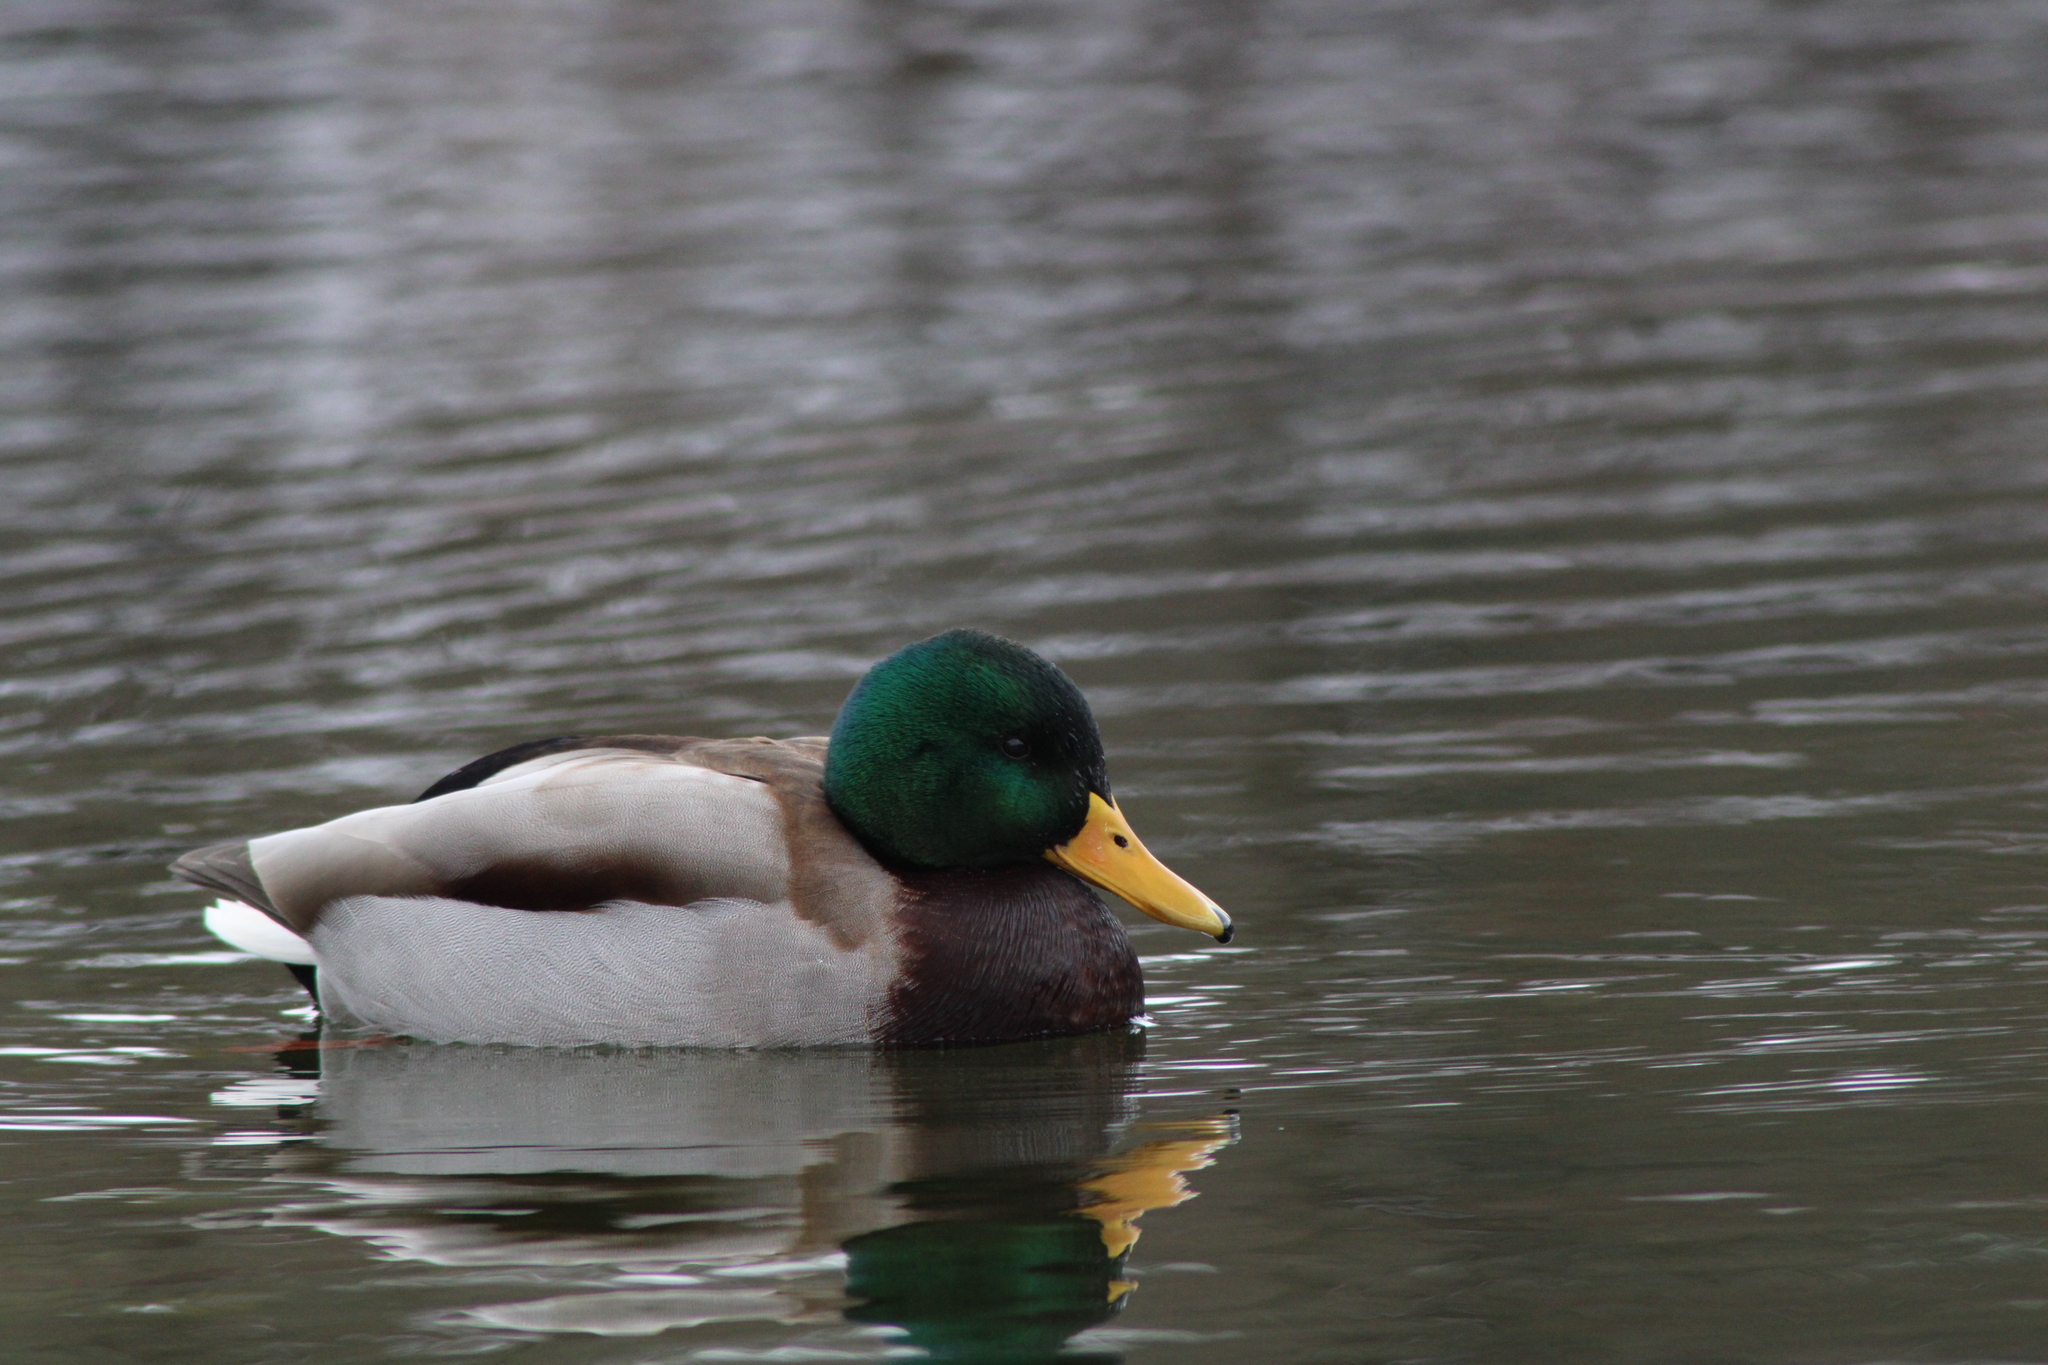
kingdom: Animalia
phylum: Chordata
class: Aves
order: Anseriformes
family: Anatidae
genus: Anas
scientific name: Anas platyrhynchos
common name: Mallard
